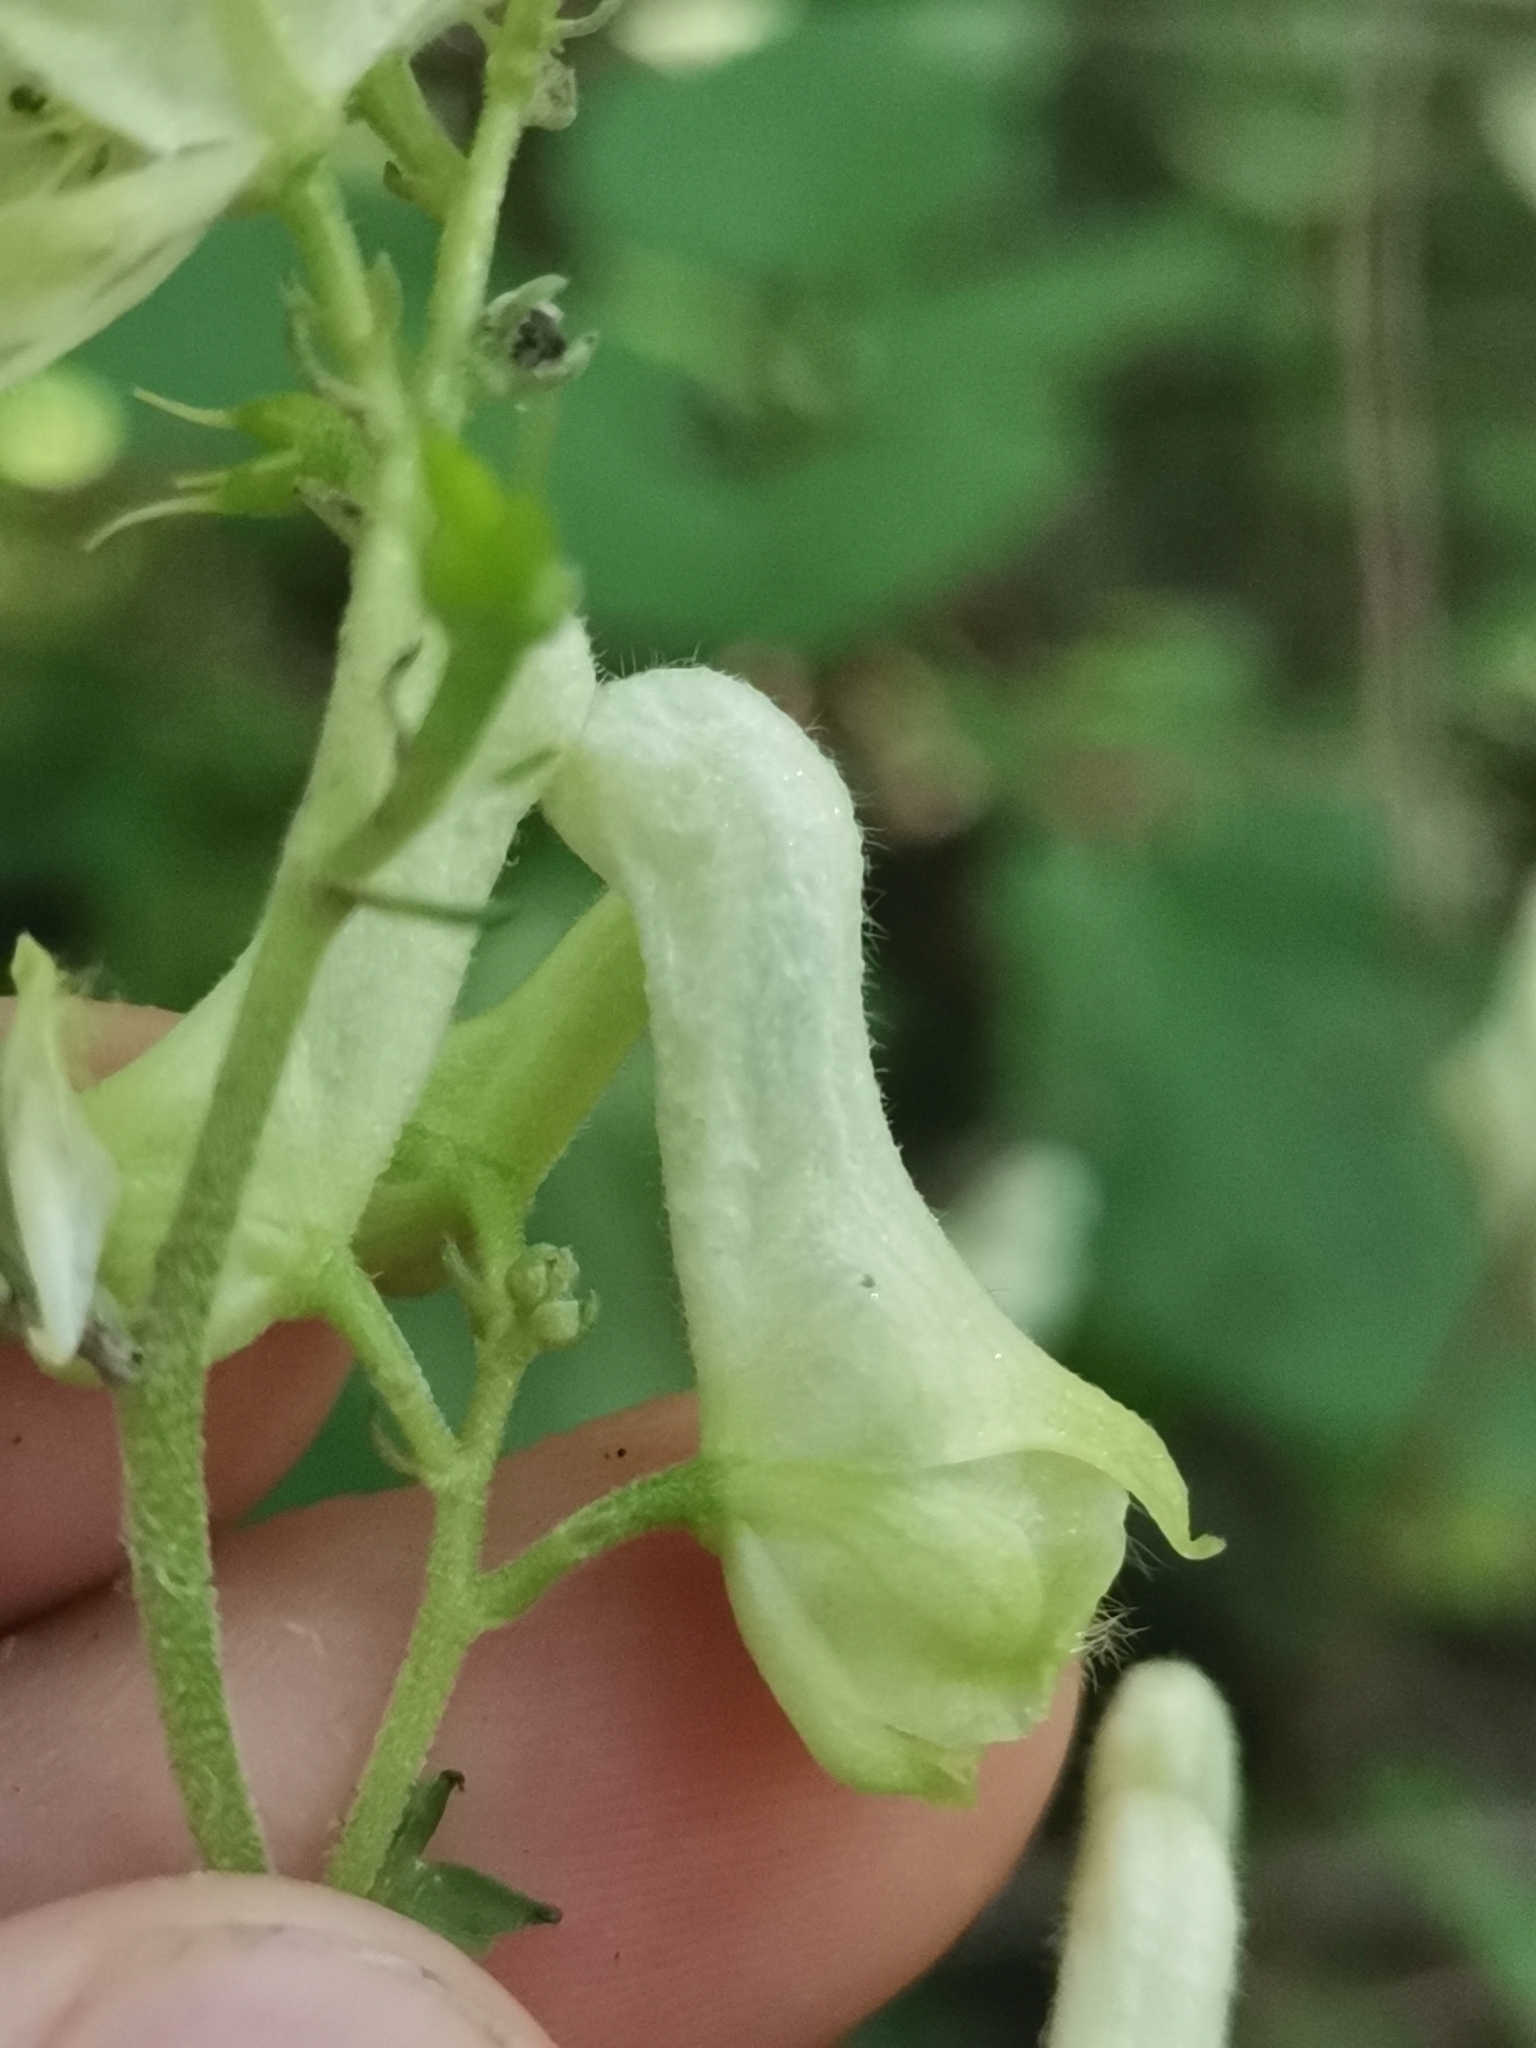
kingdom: Plantae
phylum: Tracheophyta
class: Magnoliopsida
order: Ranunculales
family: Ranunculaceae
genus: Aconitum
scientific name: Aconitum lycoctonum
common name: Wolf's-bane
